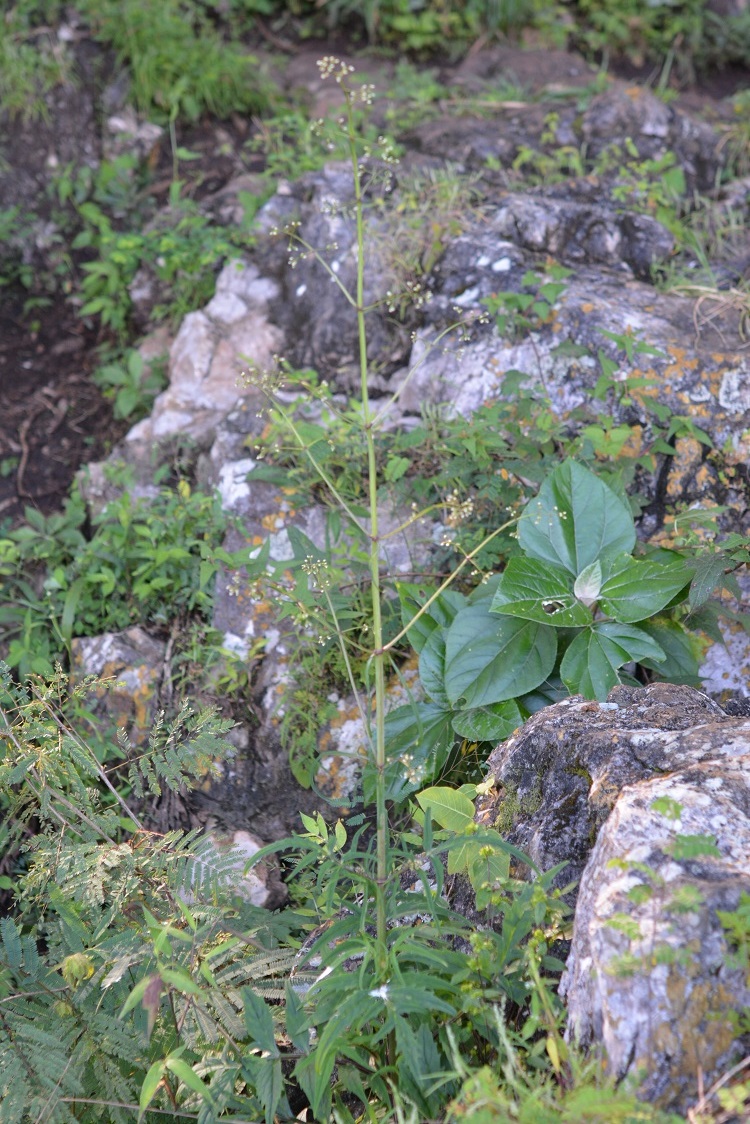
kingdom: Plantae
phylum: Tracheophyta
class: Magnoliopsida
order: Dipsacales
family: Caprifoliaceae
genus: Valeriana
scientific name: Valeriana sorbifolia
